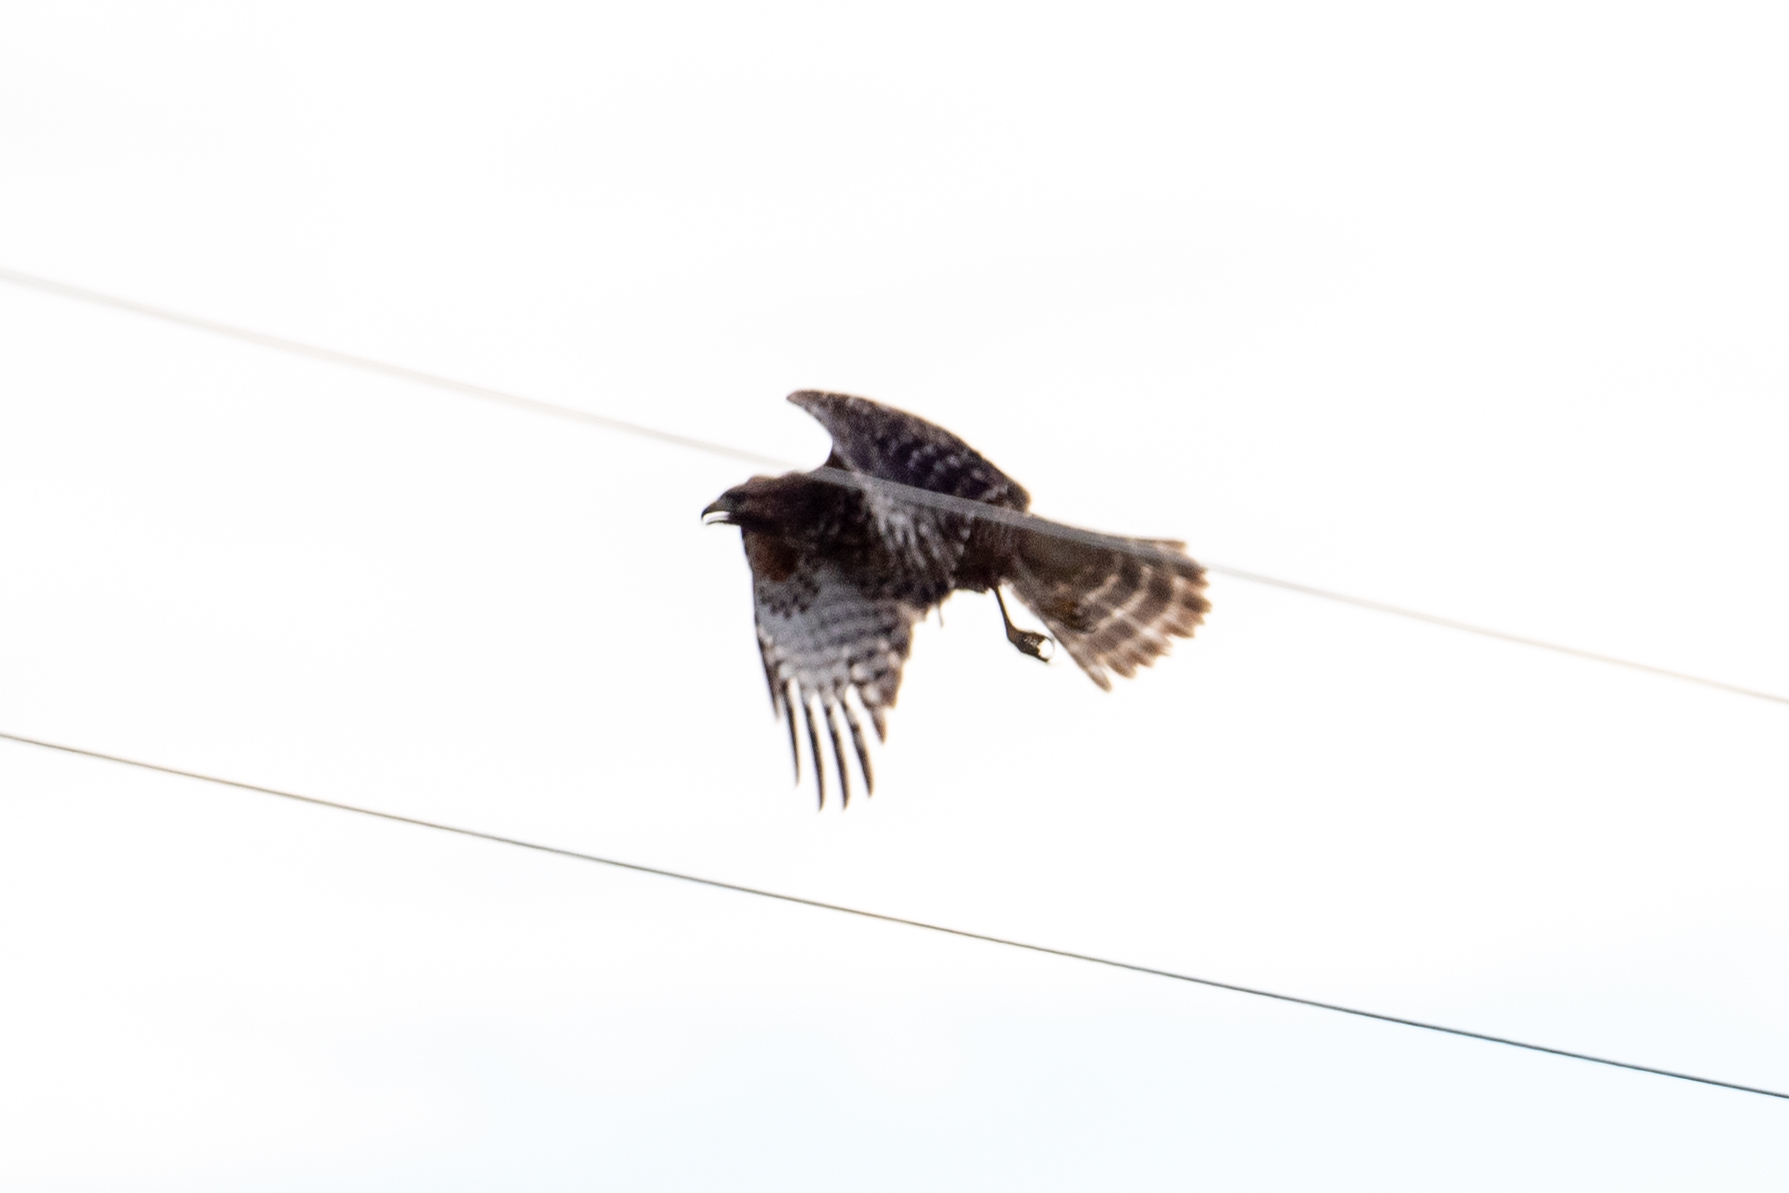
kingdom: Animalia
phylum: Chordata
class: Aves
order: Accipitriformes
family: Accipitridae
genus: Buteo
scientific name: Buteo lineatus
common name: Red-shouldered hawk
